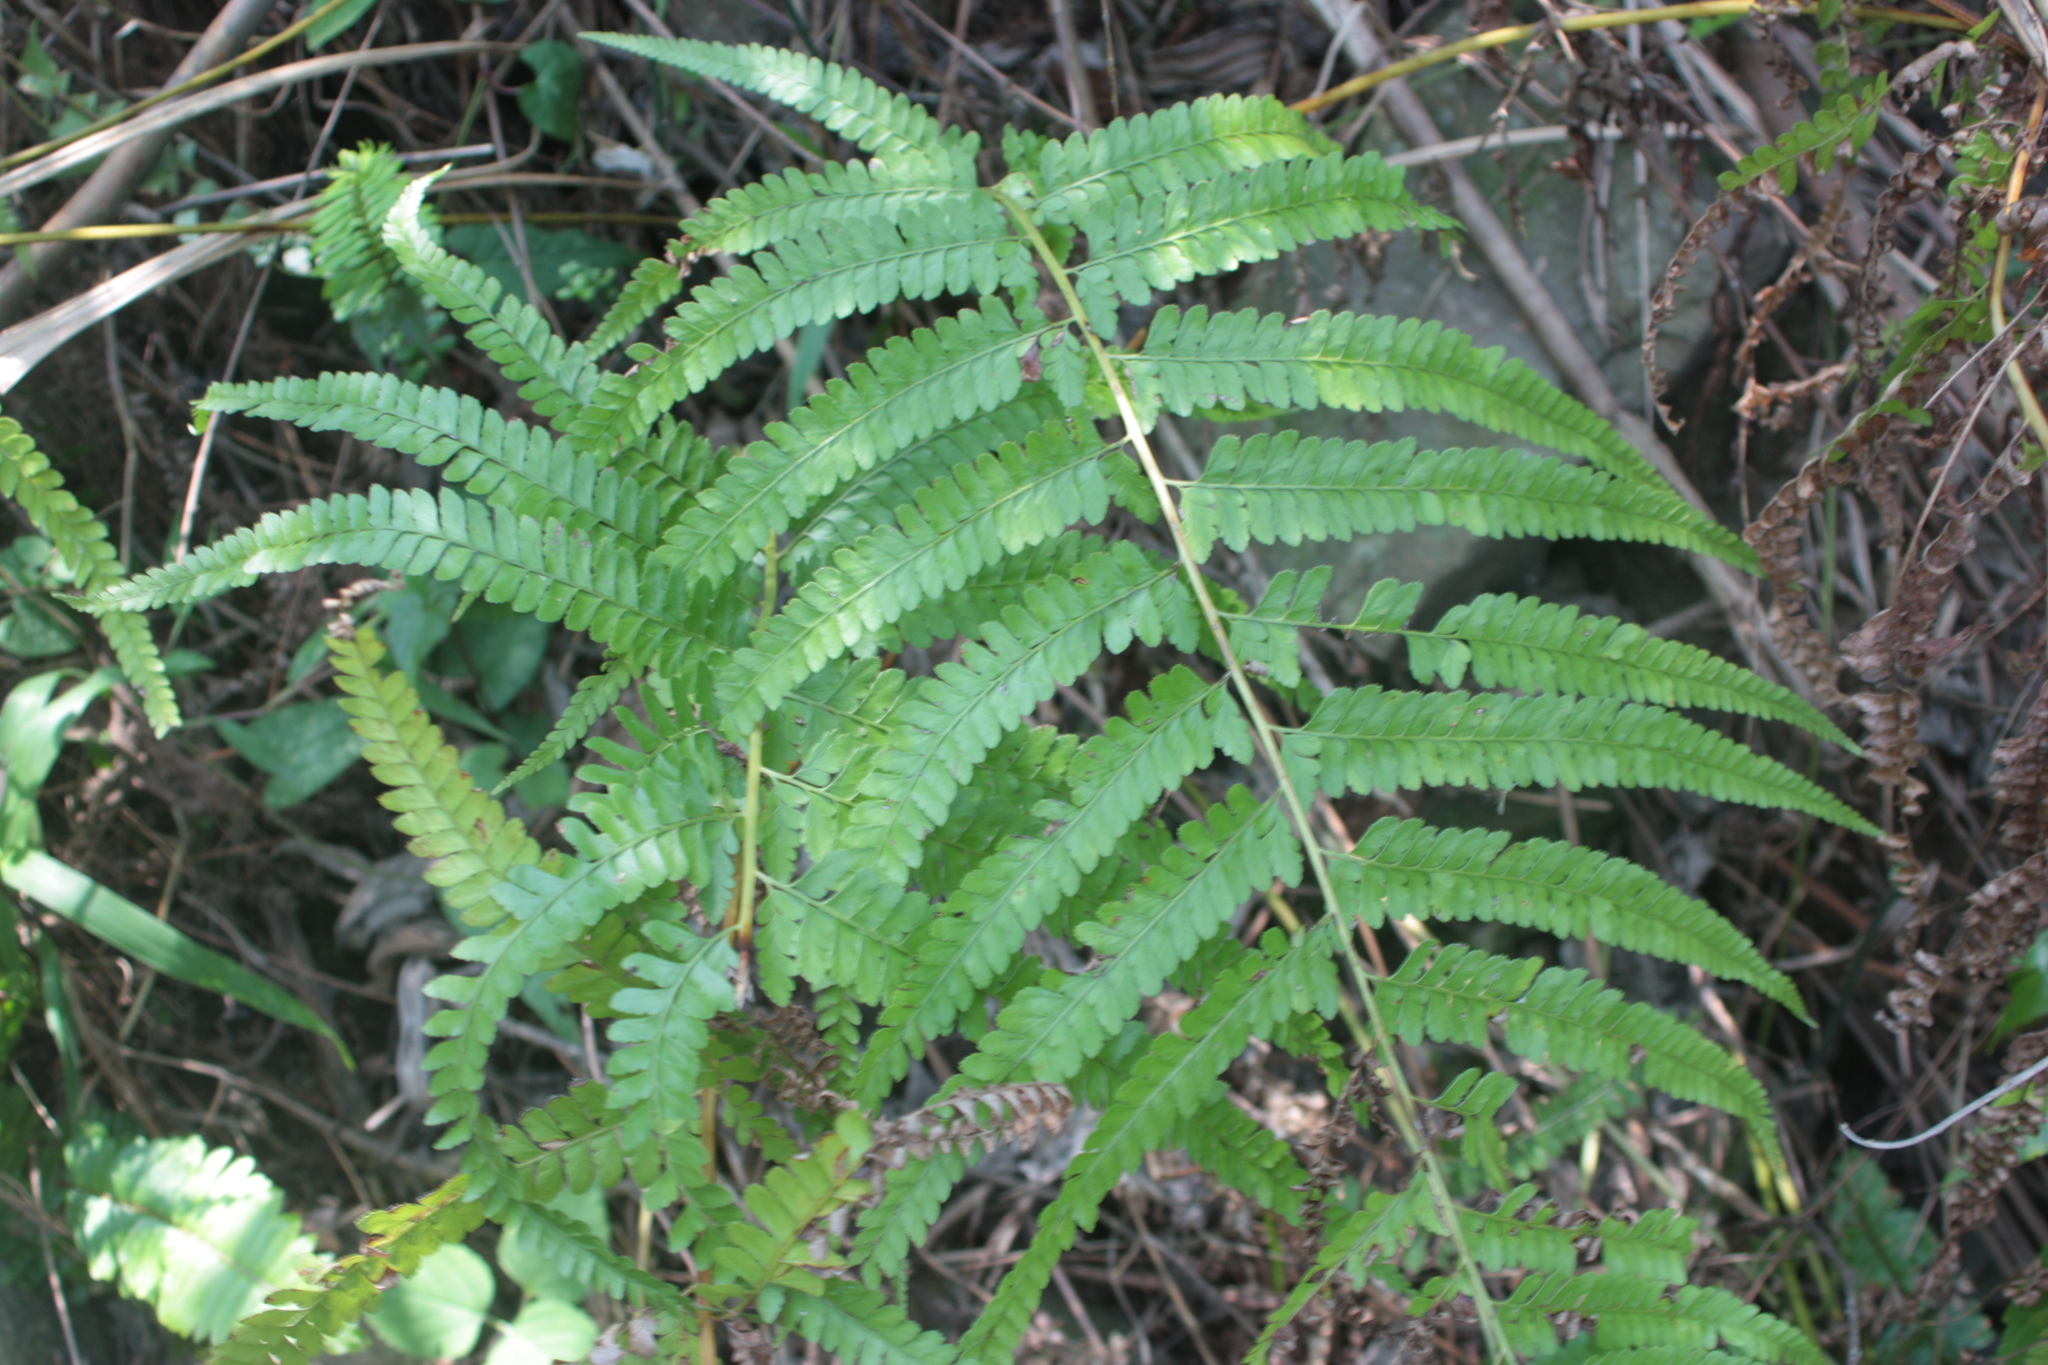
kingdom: Plantae
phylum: Tracheophyta
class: Polypodiopsida
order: Polypodiales
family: Dennstaedtiaceae
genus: Microlepia
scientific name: Microlepia strigosa
